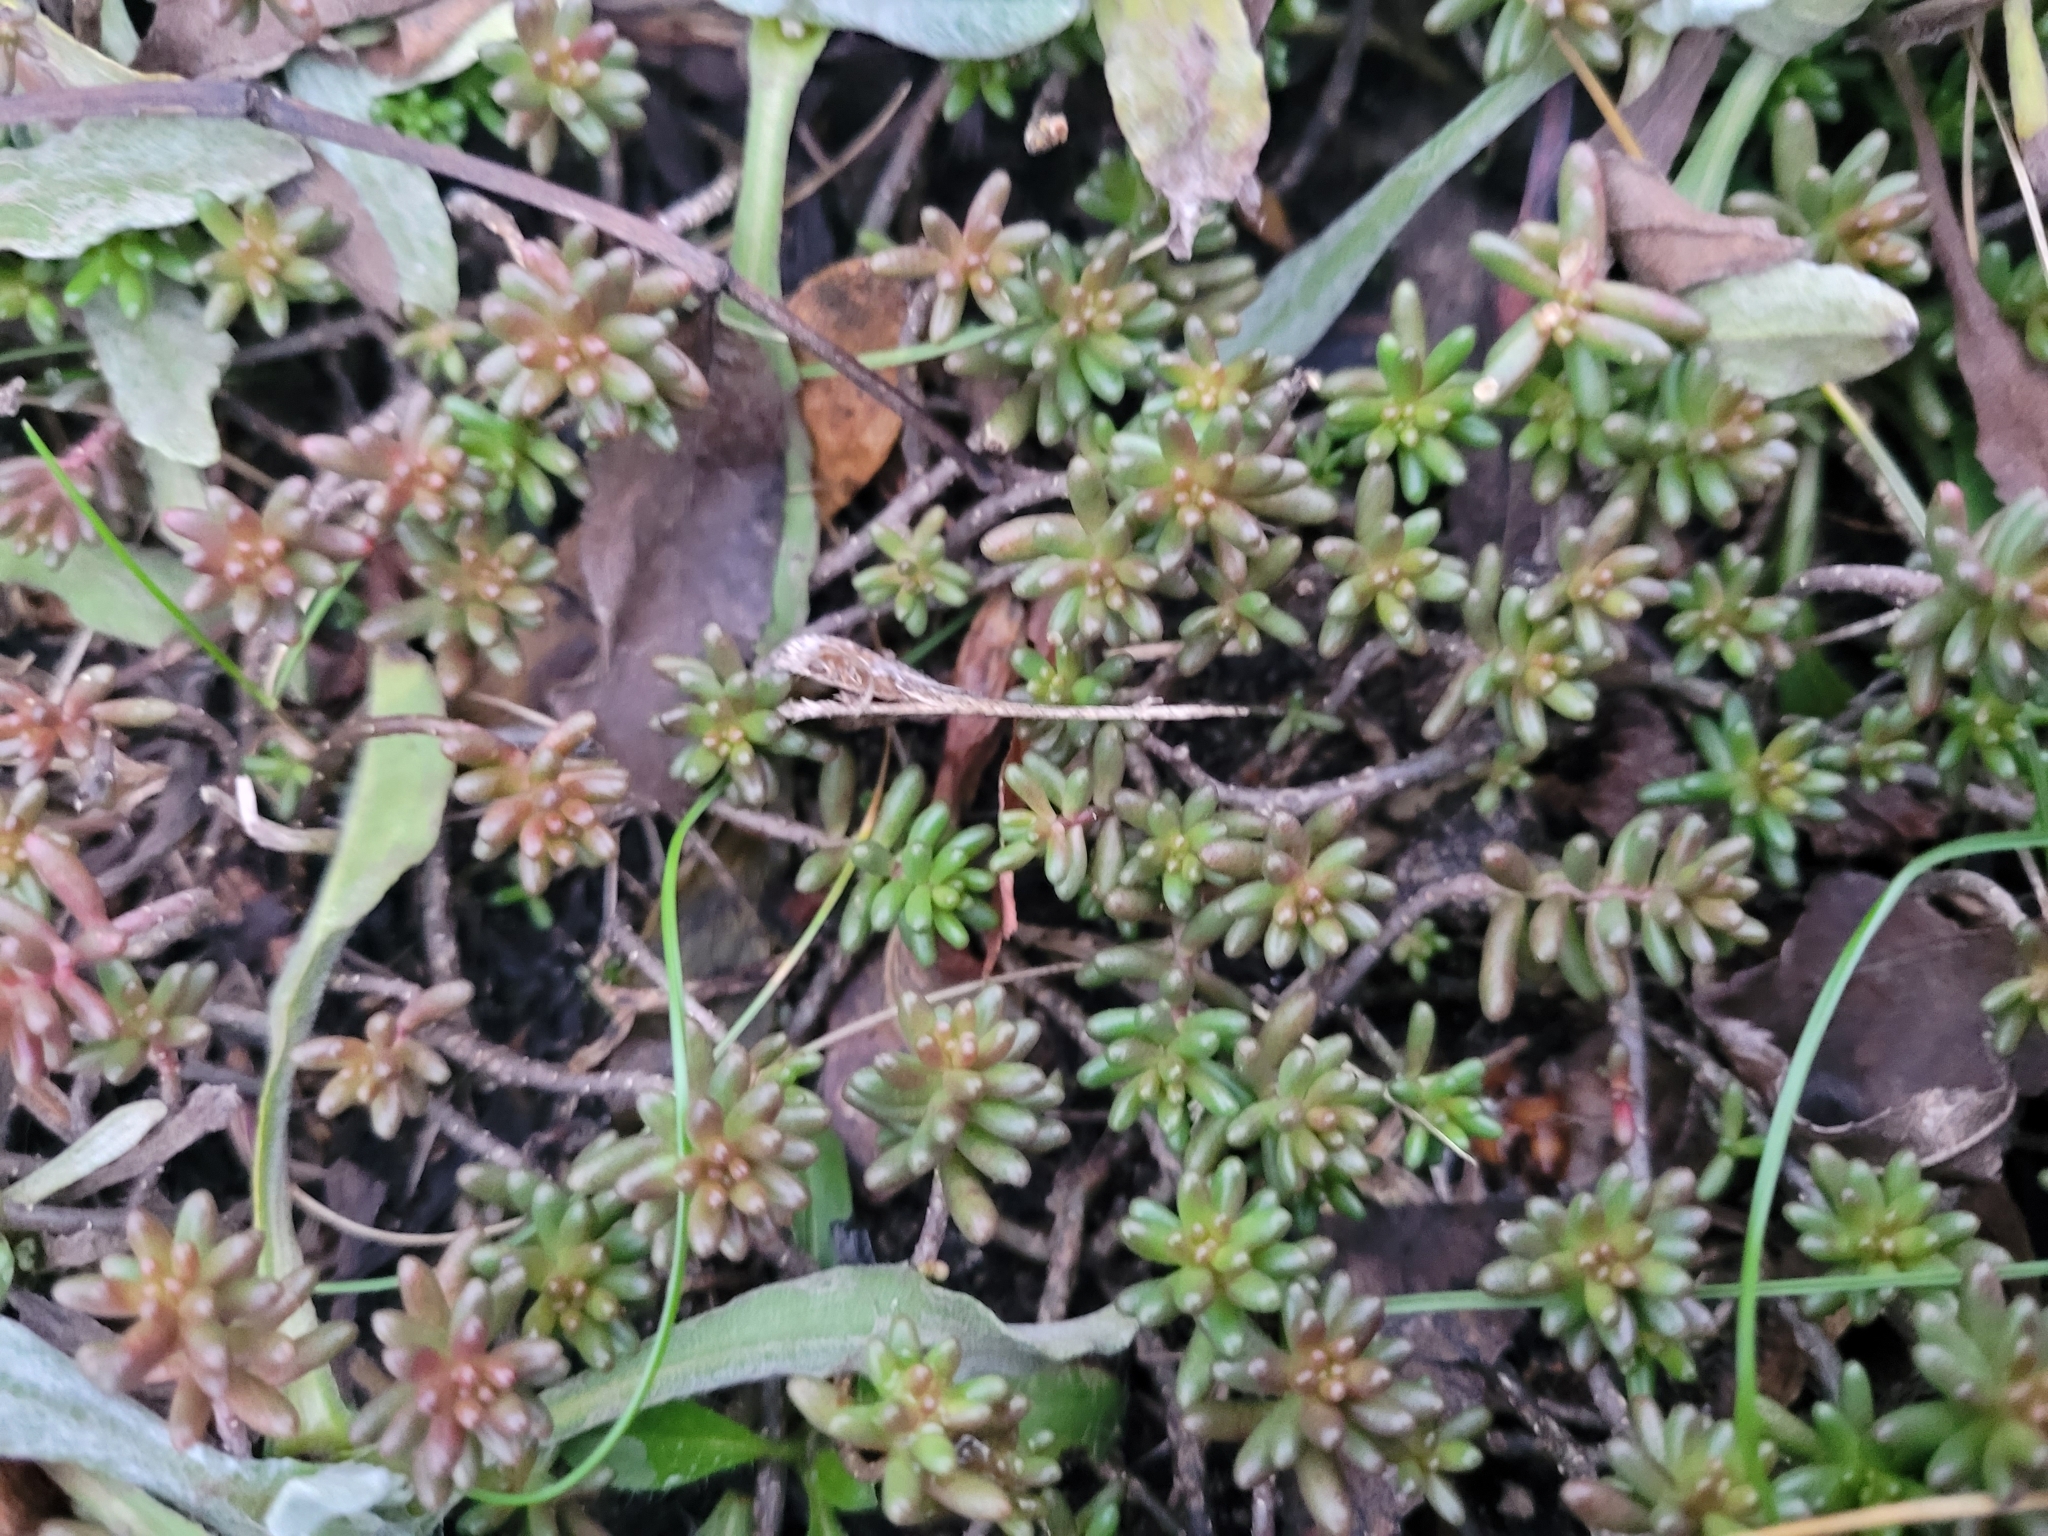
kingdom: Plantae
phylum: Tracheophyta
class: Magnoliopsida
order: Saxifragales
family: Crassulaceae
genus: Sedum
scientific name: Sedum album
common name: White stonecrop
